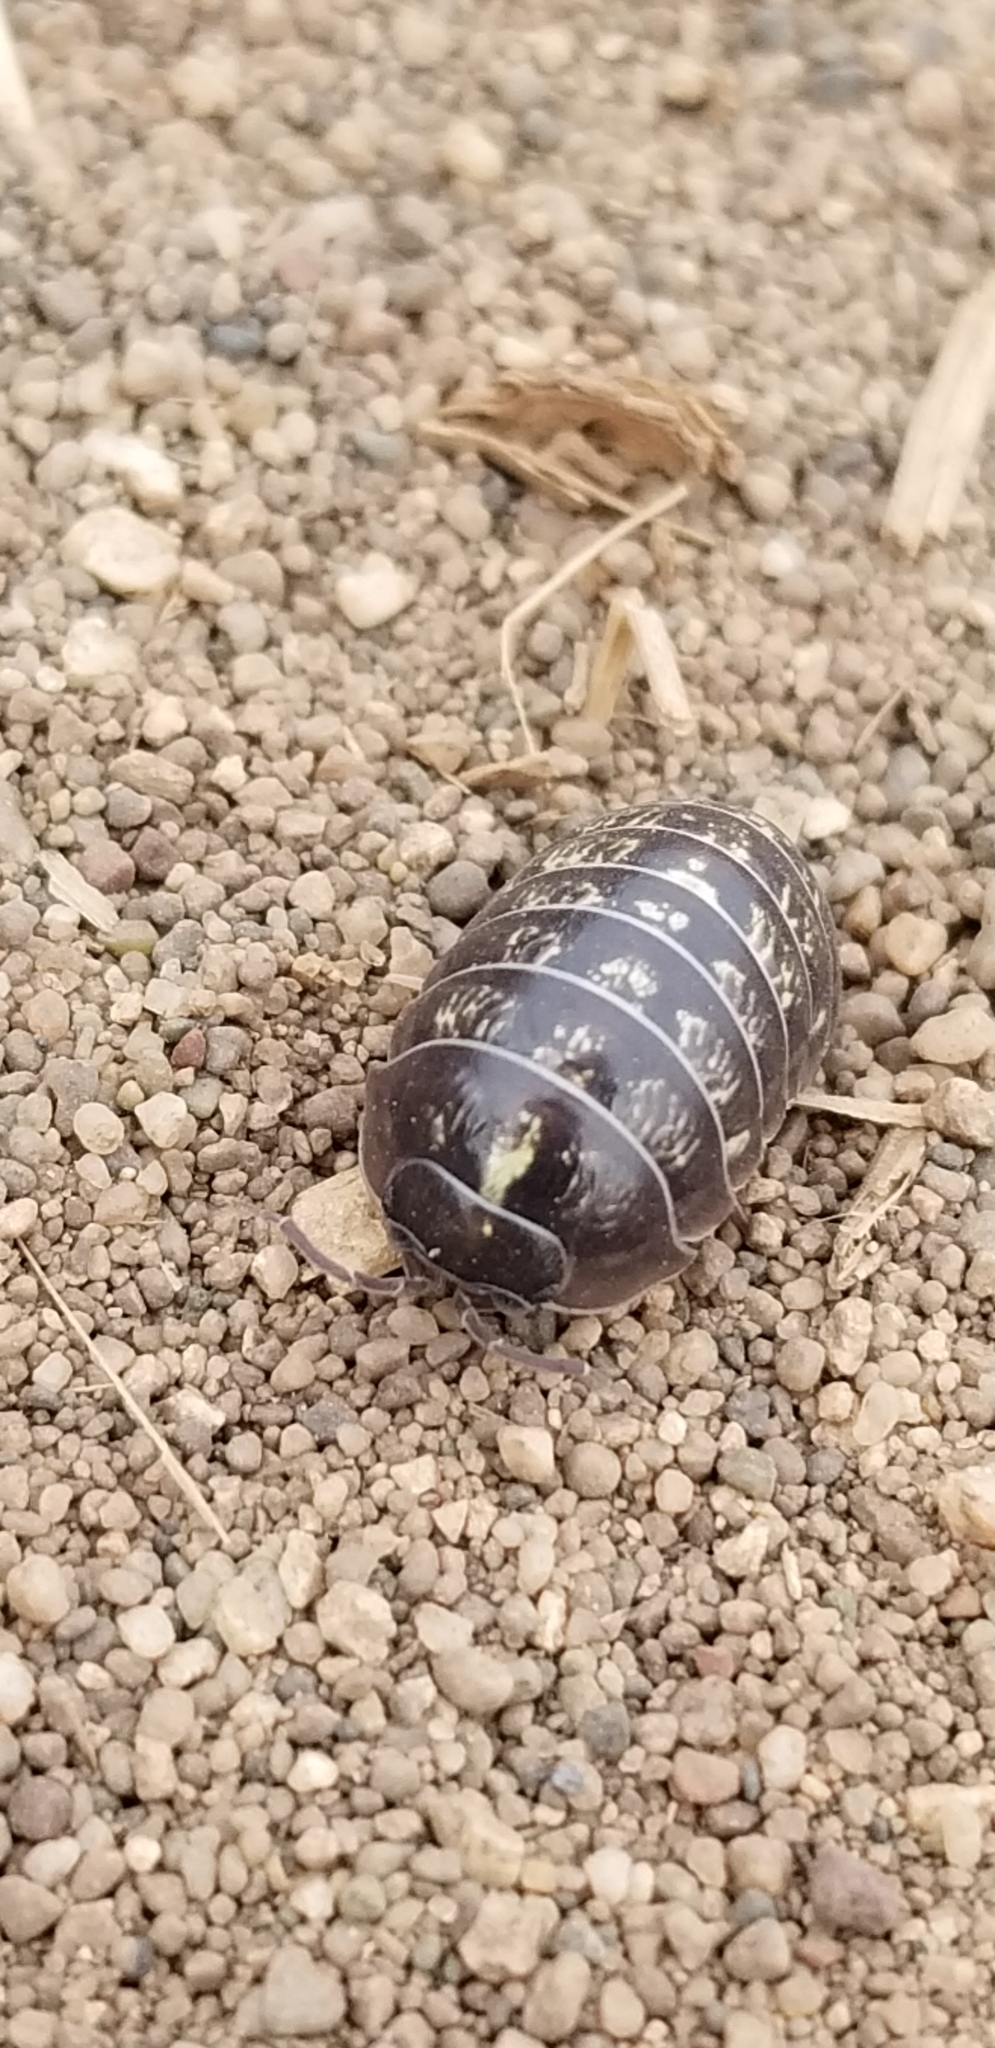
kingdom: Animalia
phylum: Arthropoda
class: Malacostraca
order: Isopoda
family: Armadillidiidae
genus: Armadillidium
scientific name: Armadillidium vulgare
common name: Common pill woodlouse
